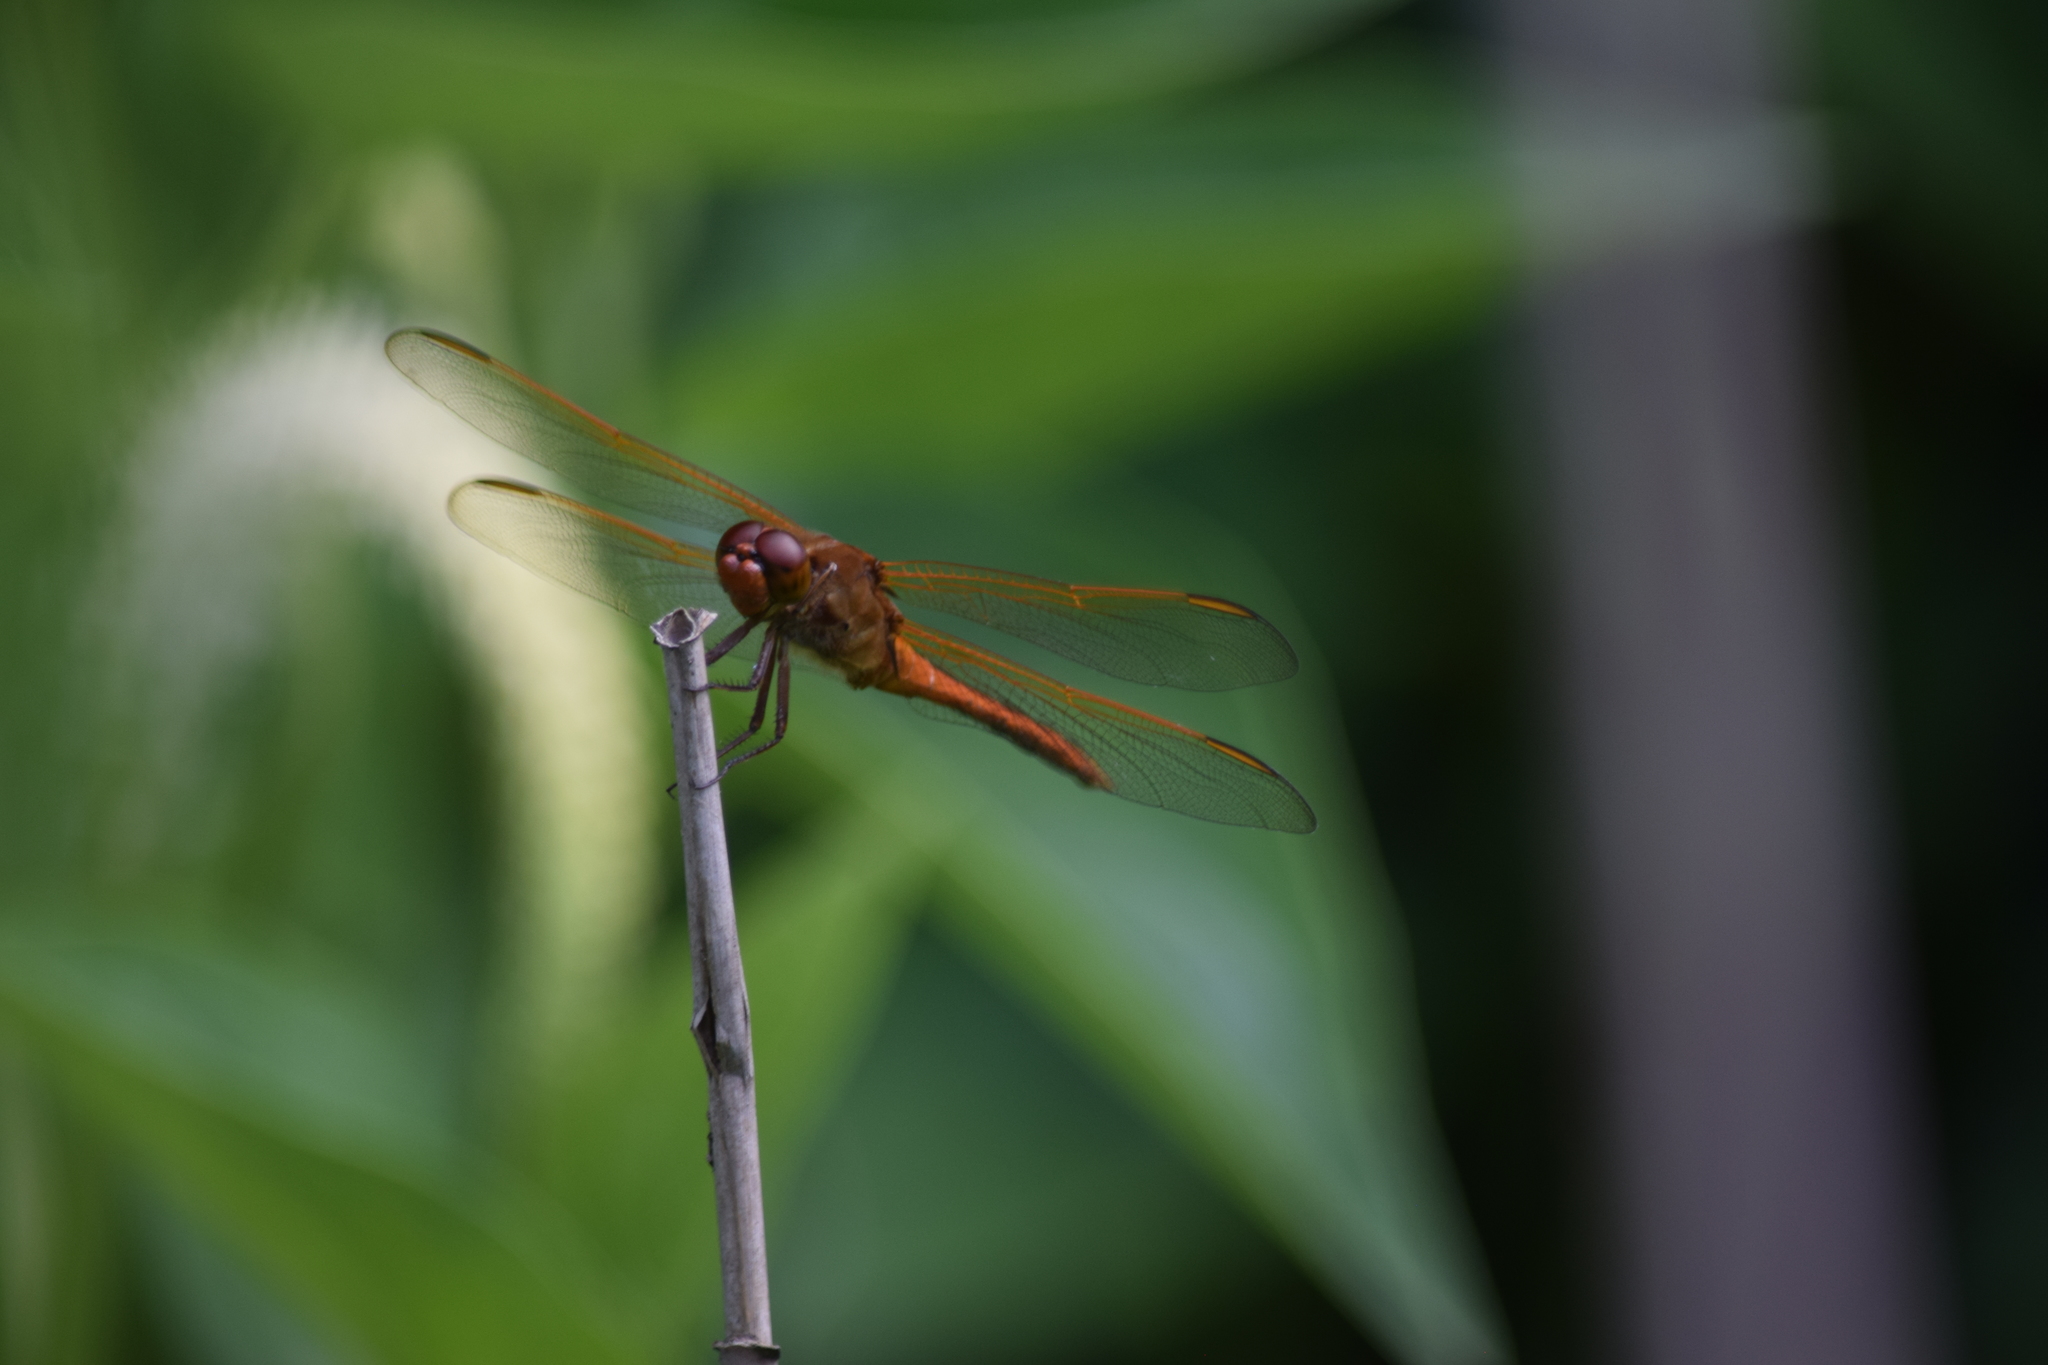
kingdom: Animalia
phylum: Arthropoda
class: Insecta
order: Odonata
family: Libellulidae
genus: Libellula
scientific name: Libellula needhami
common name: Needham's skimmer
